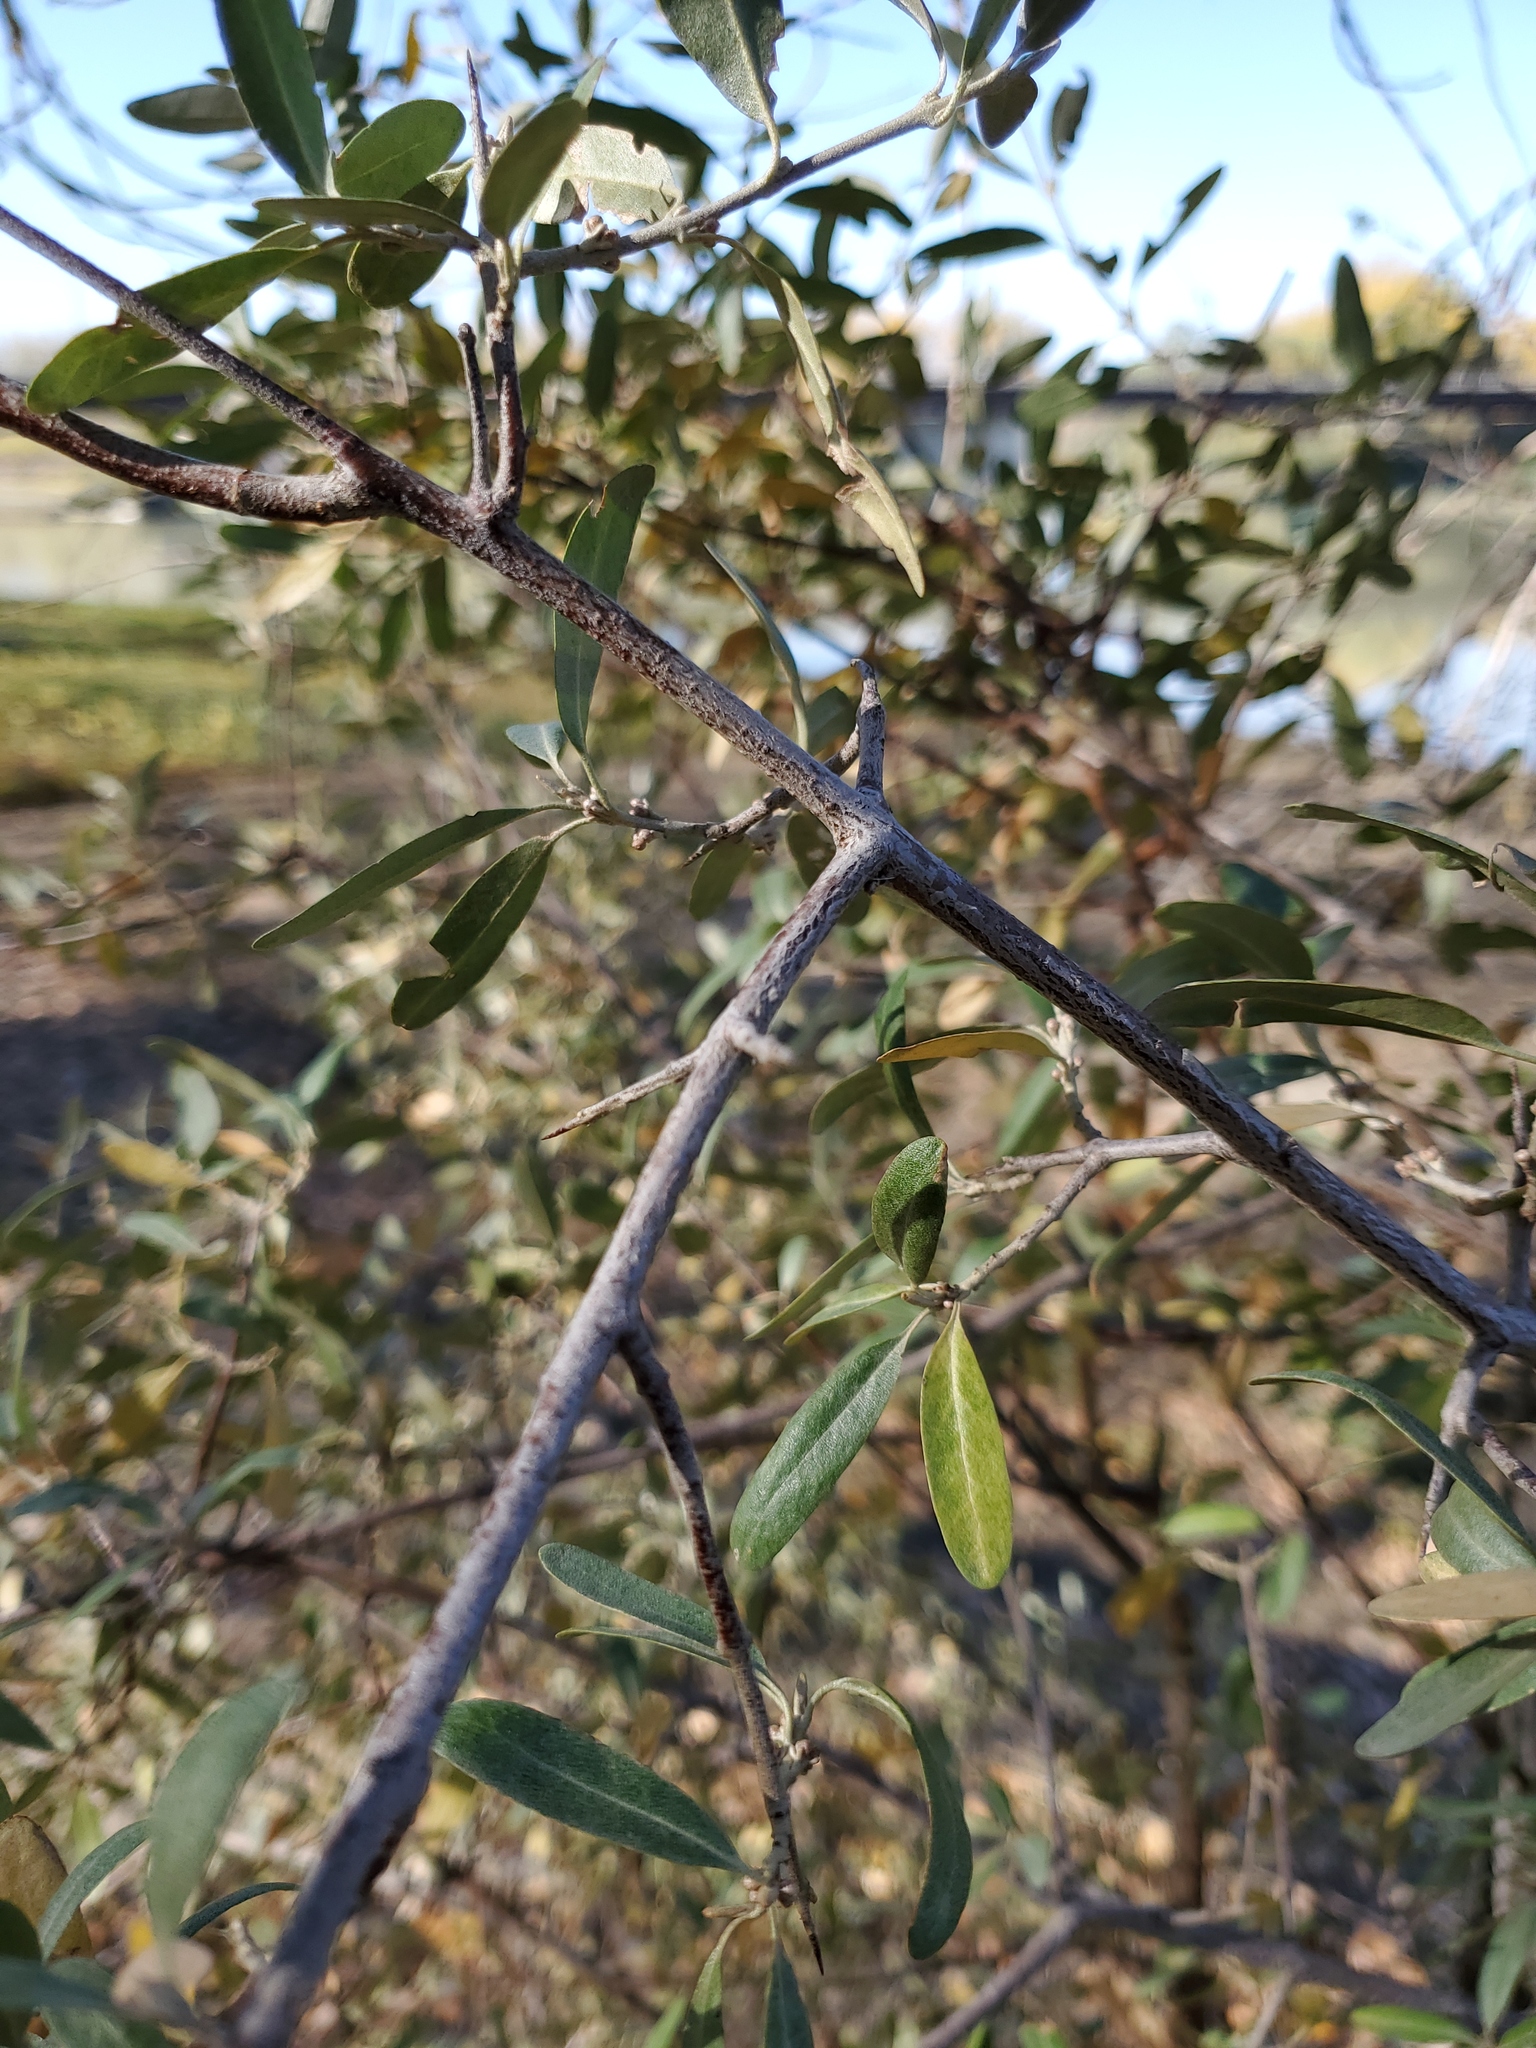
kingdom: Plantae
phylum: Tracheophyta
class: Magnoliopsida
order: Rosales
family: Elaeagnaceae
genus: Shepherdia
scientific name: Shepherdia argentea
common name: Silver buffaloberry
